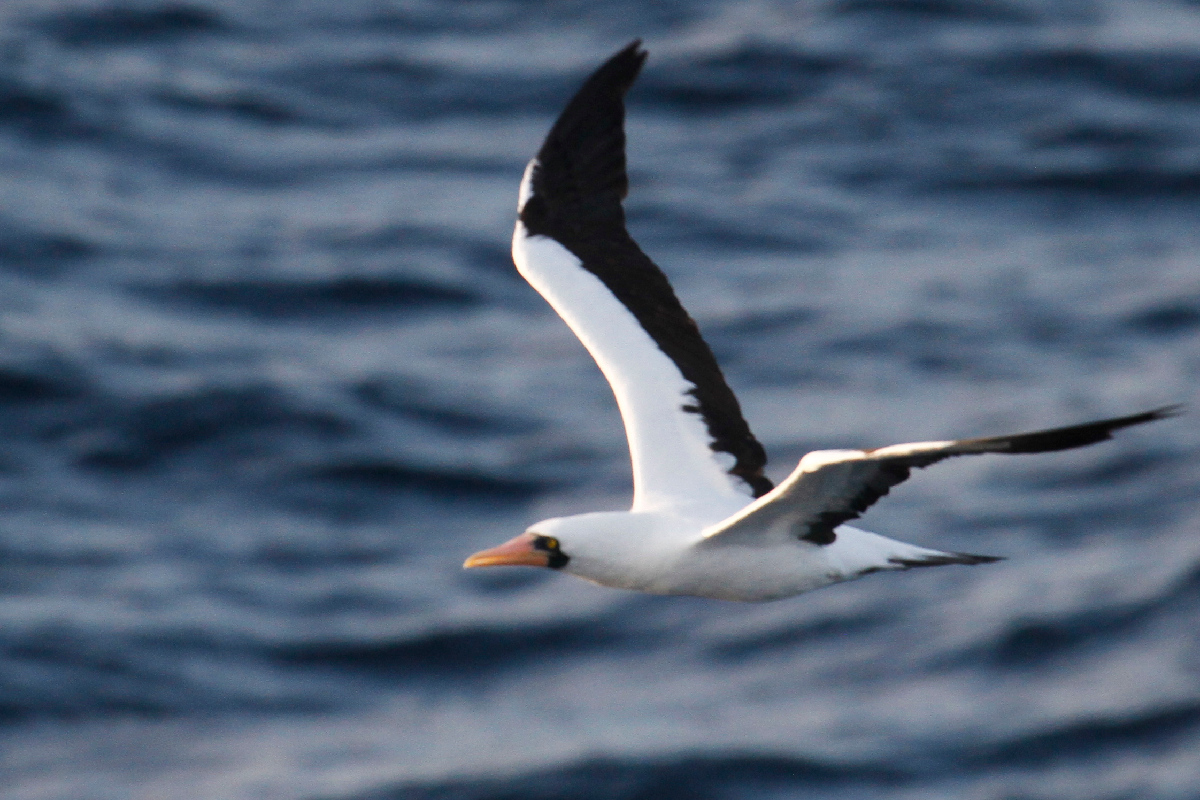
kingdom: Animalia
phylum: Chordata
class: Aves
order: Suliformes
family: Sulidae
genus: Sula
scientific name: Sula granti
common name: Nazca booby
